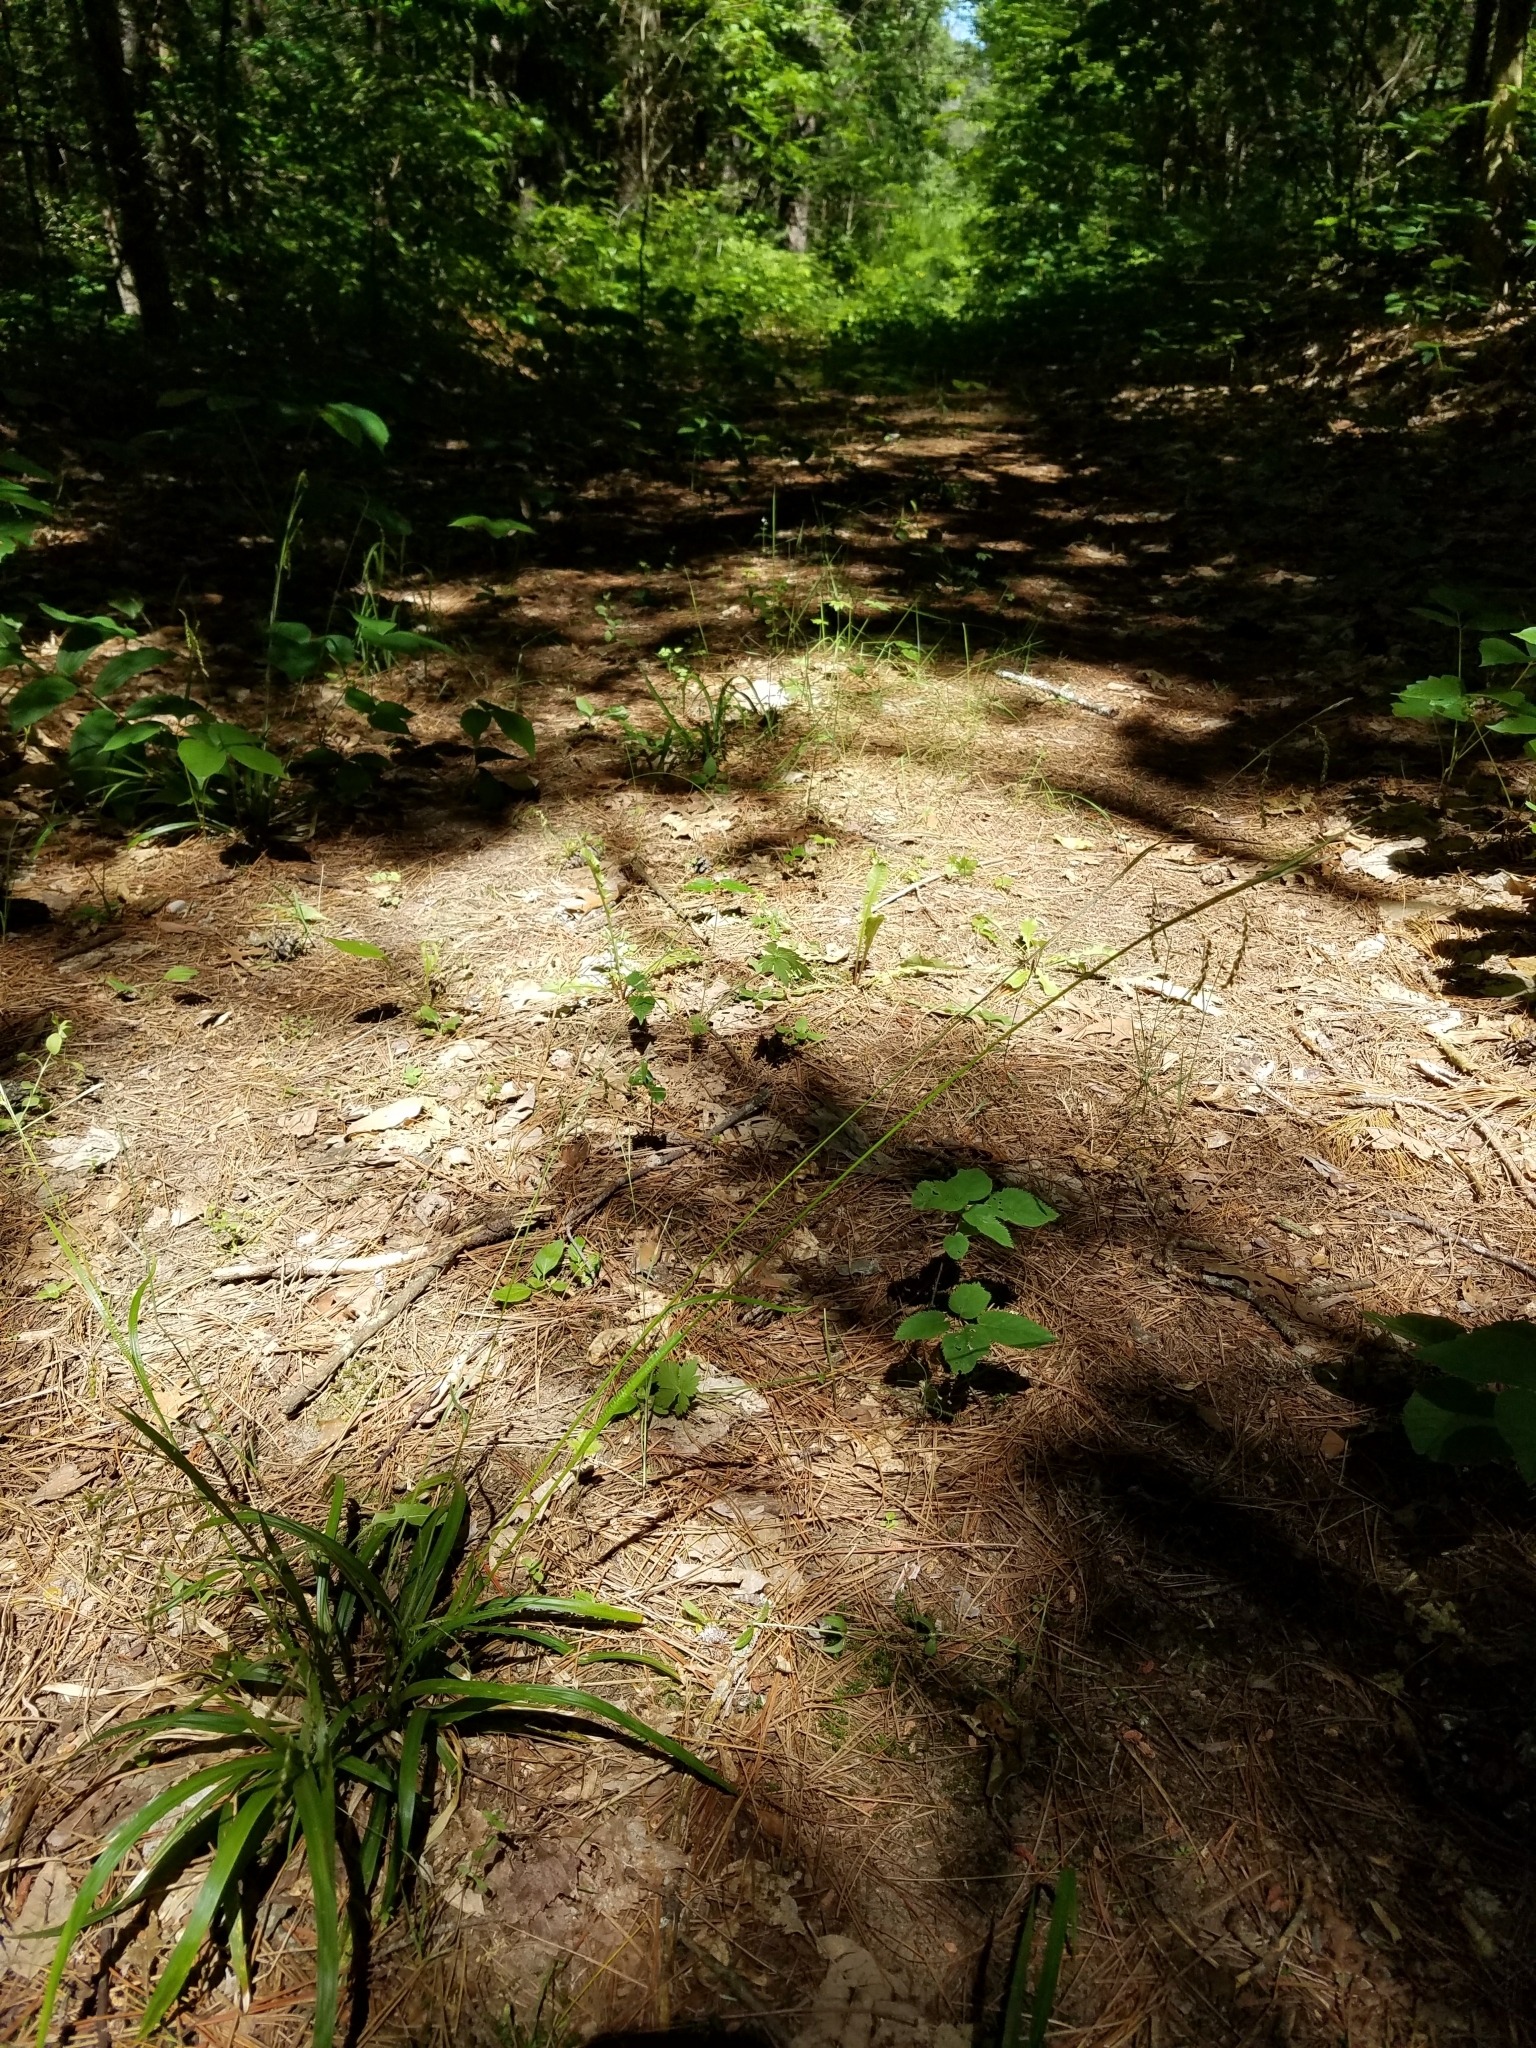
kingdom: Plantae
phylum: Tracheophyta
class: Liliopsida
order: Poales
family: Cyperaceae
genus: Carex
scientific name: Carex arctata
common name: Black sedge
